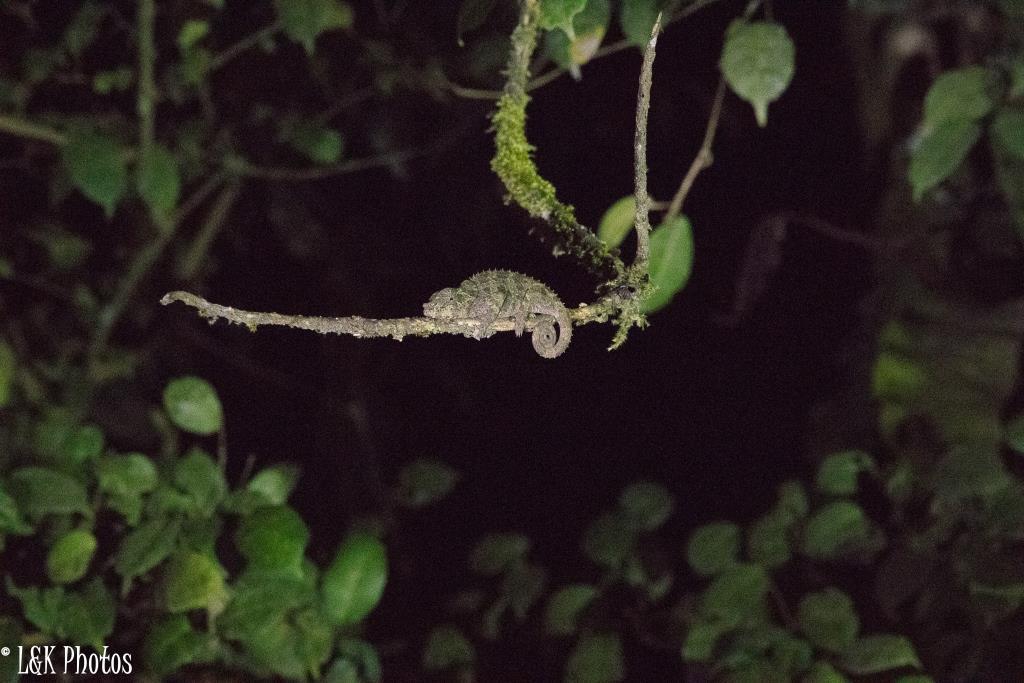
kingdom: Animalia
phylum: Chordata
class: Squamata
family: Chamaeleonidae
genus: Calumma
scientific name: Calumma crypticum
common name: Cryptic chameleon
